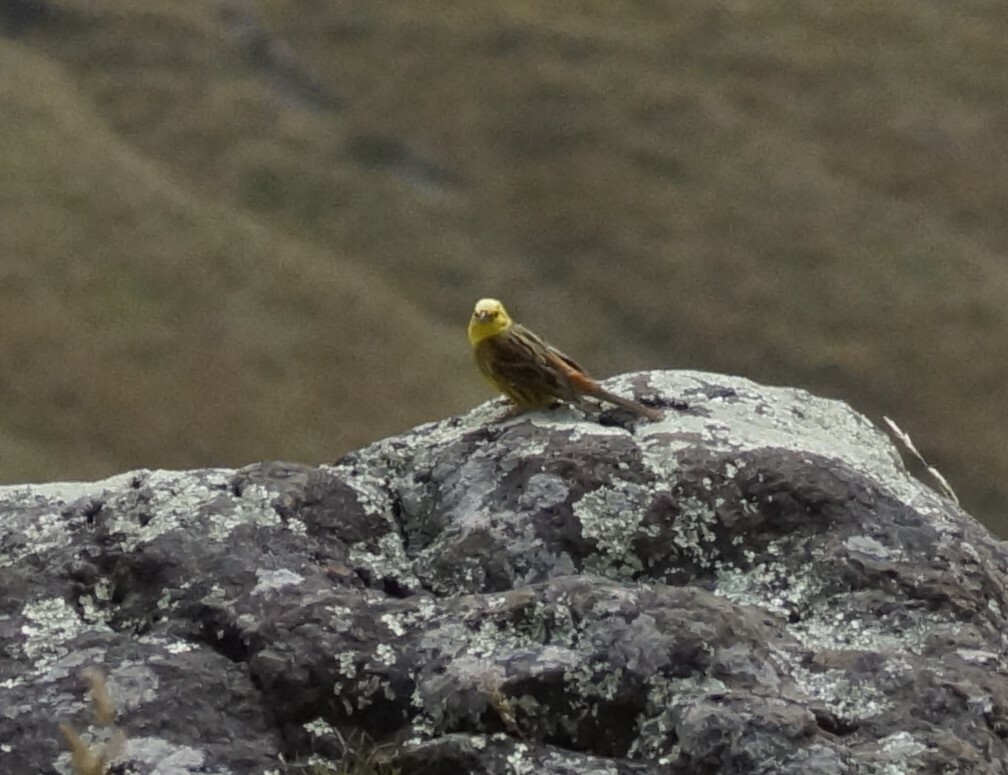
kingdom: Animalia
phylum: Chordata
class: Aves
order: Passeriformes
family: Emberizidae
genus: Emberiza
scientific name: Emberiza citrinella
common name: Yellowhammer
